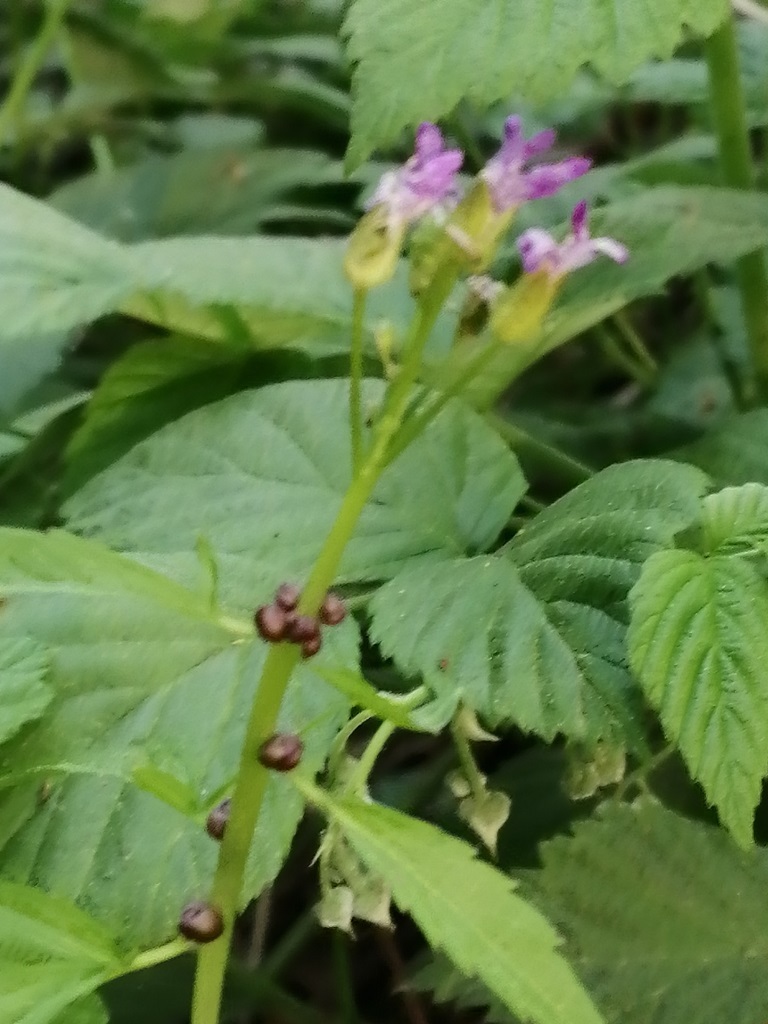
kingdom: Plantae
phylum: Tracheophyta
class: Magnoliopsida
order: Brassicales
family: Brassicaceae
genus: Cardamine
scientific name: Cardamine bulbifera
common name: Coralroot bittercress
